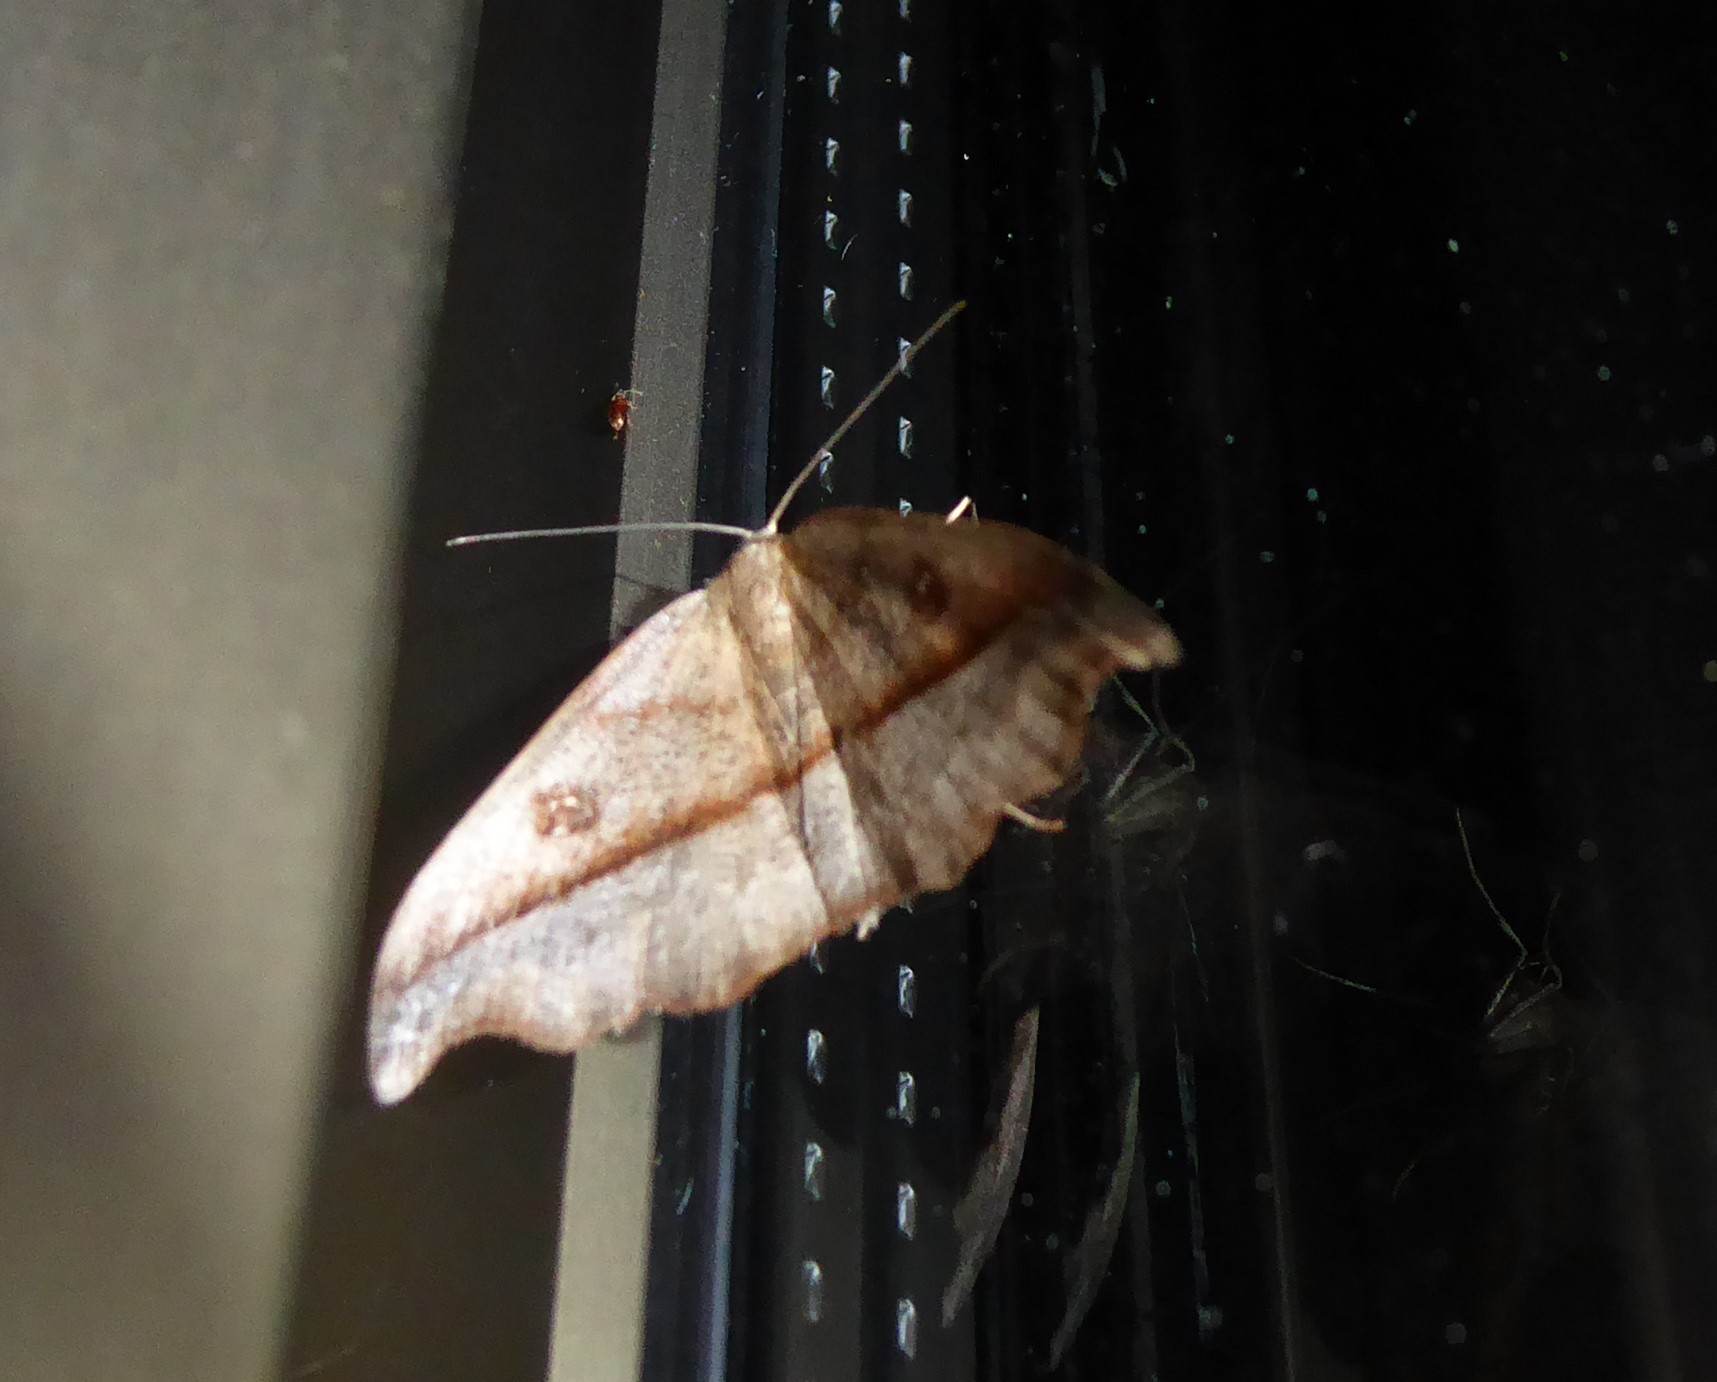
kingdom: Animalia
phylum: Arthropoda
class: Insecta
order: Lepidoptera
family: Geometridae
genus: Sarisa
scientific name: Sarisa muriferata
